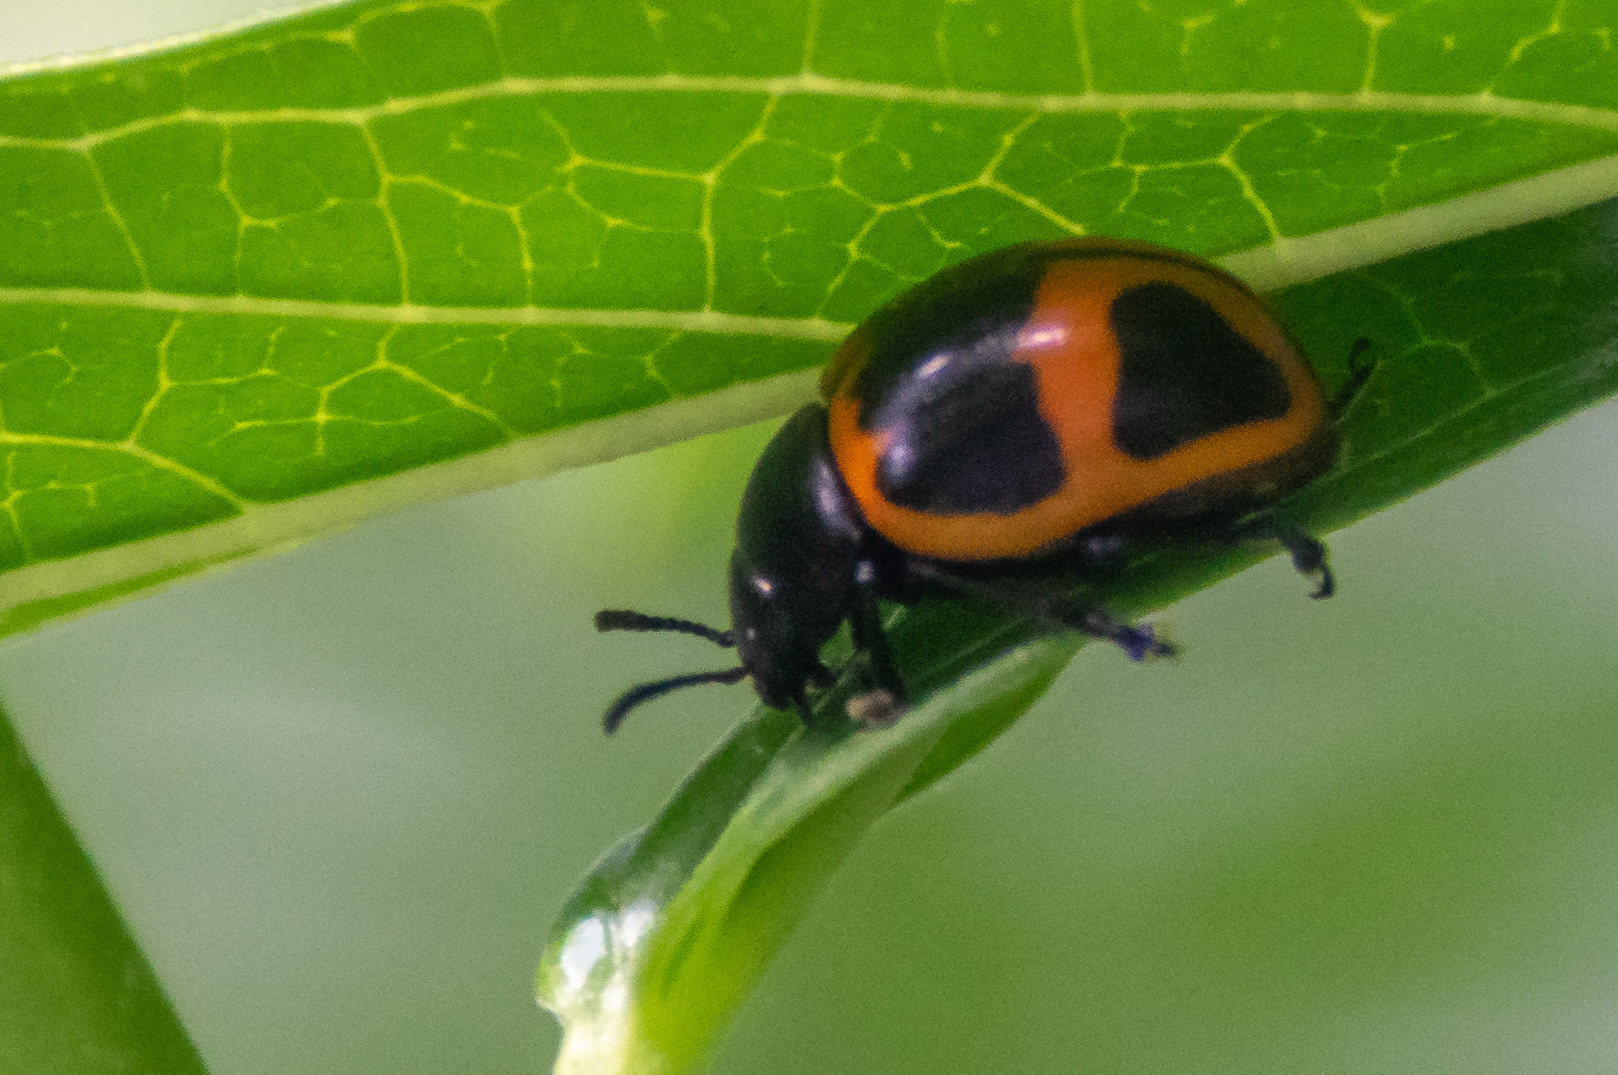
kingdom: Animalia
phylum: Arthropoda
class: Insecta
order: Coleoptera
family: Chrysomelidae
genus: Labidomera
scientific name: Labidomera clivicollis
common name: Swamp milkweed leaf beetle
